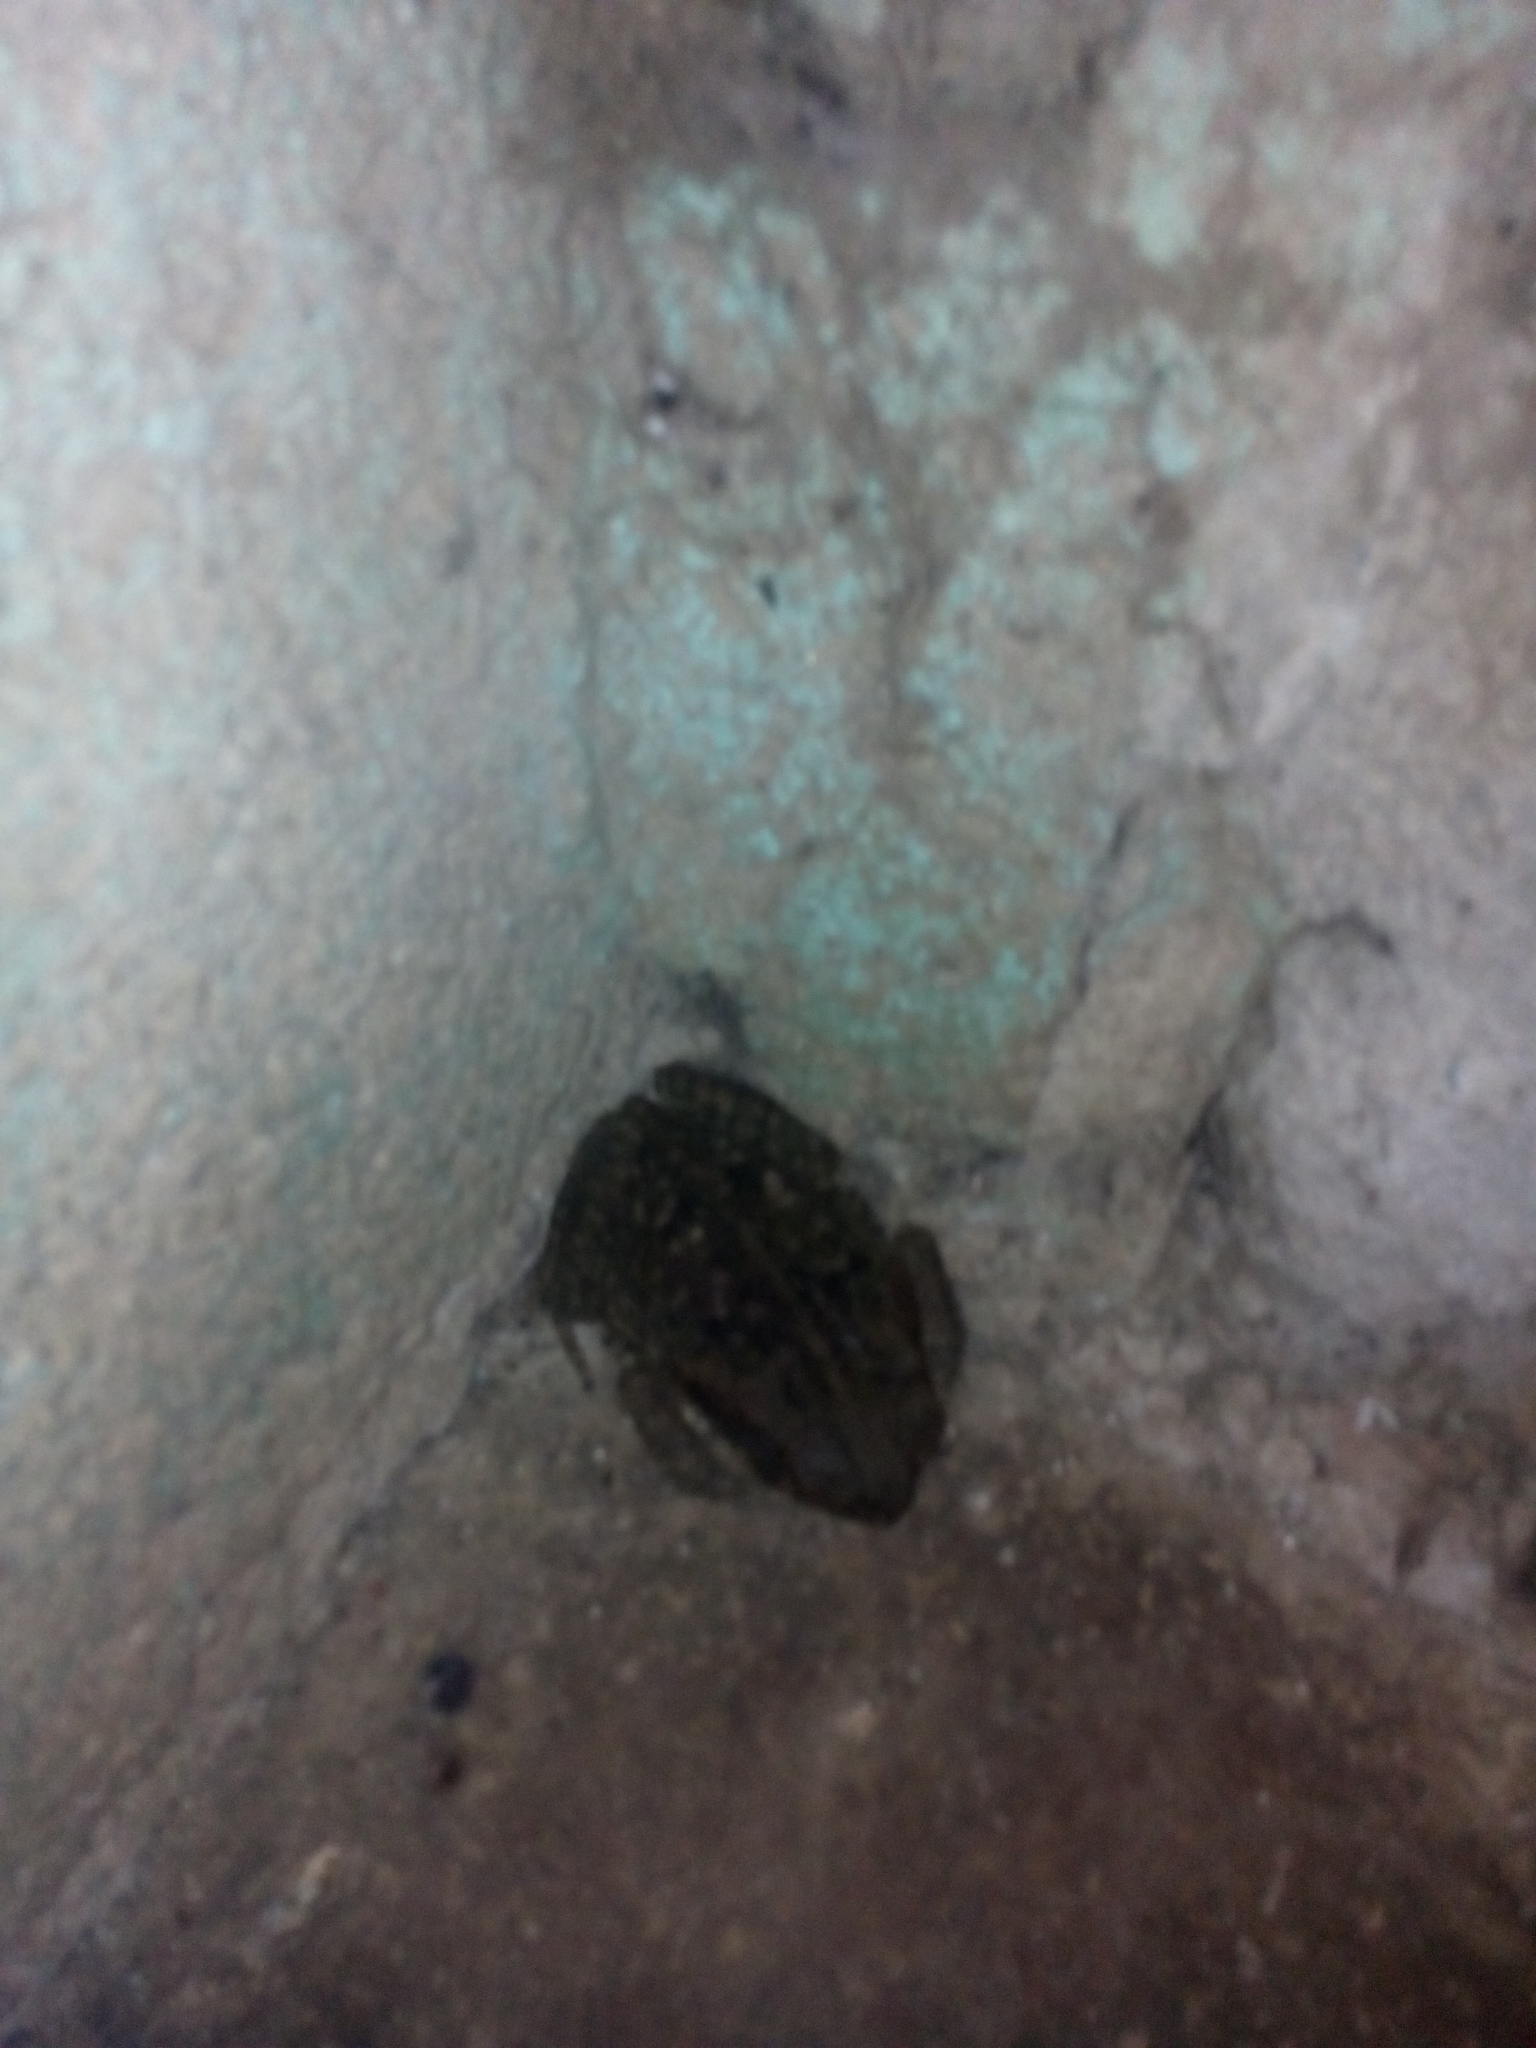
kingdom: Animalia
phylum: Chordata
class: Amphibia
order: Anura
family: Bufonidae
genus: Rhinella
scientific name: Rhinella horribilis
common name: Mesoamerican cane toad
